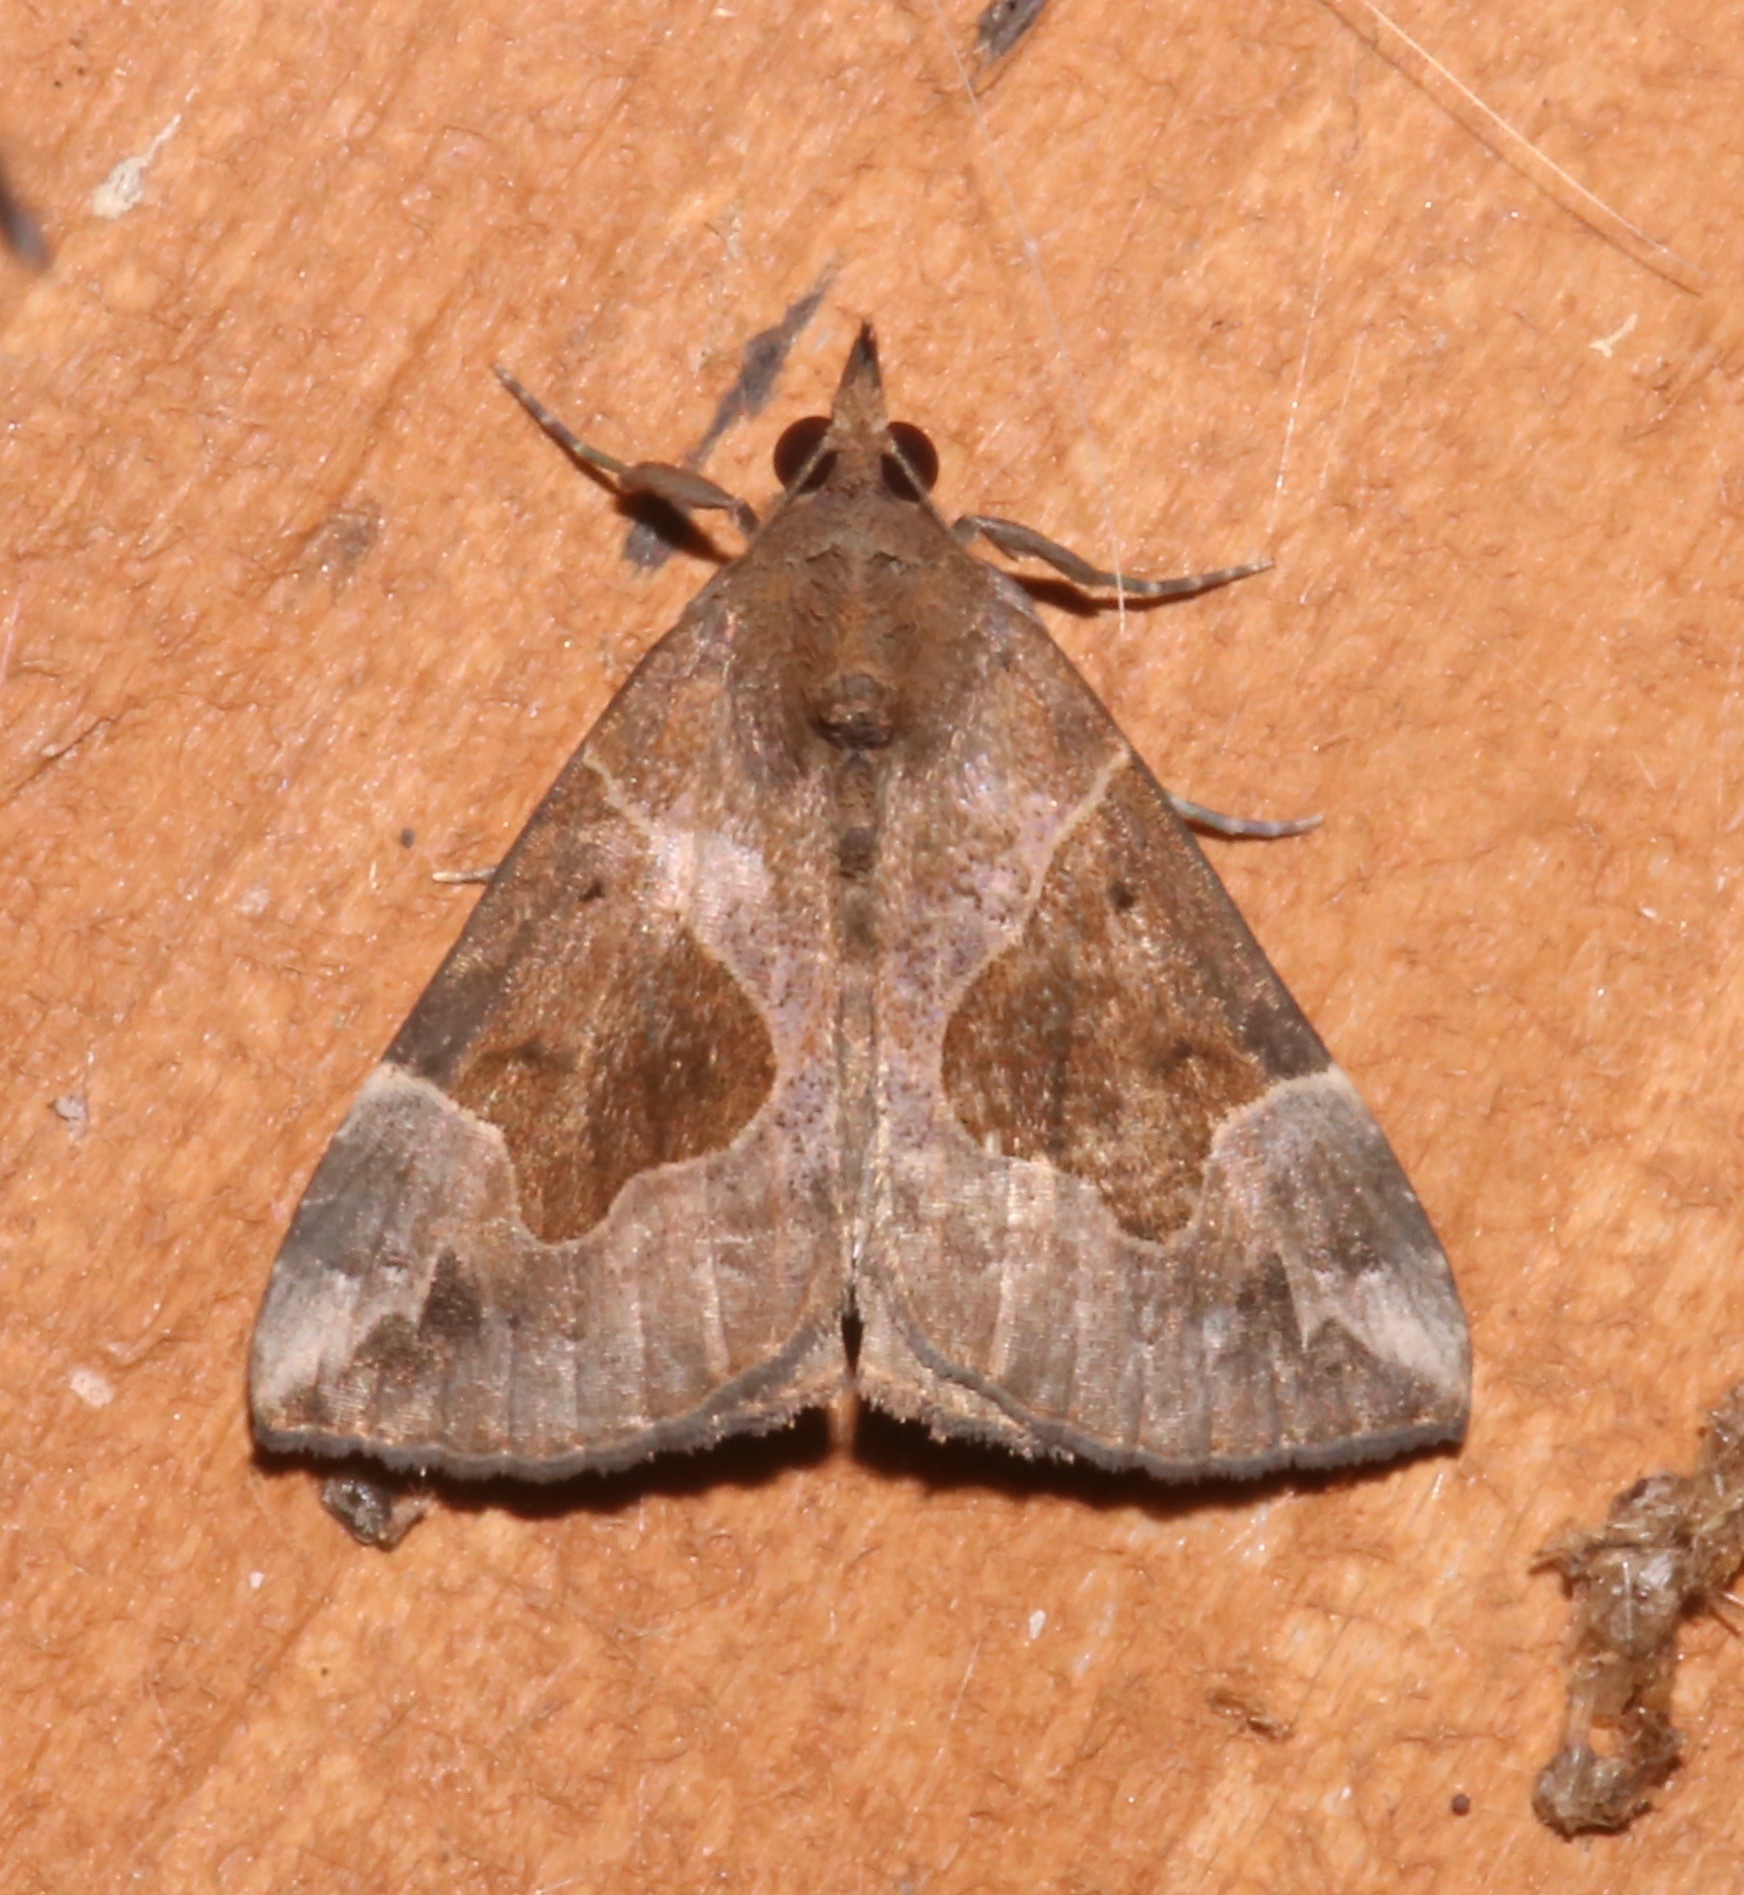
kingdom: Animalia
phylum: Arthropoda
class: Insecta
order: Lepidoptera
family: Erebidae
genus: Hypena
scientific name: Hypena manalis
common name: Flowing-line bomolocha moth
